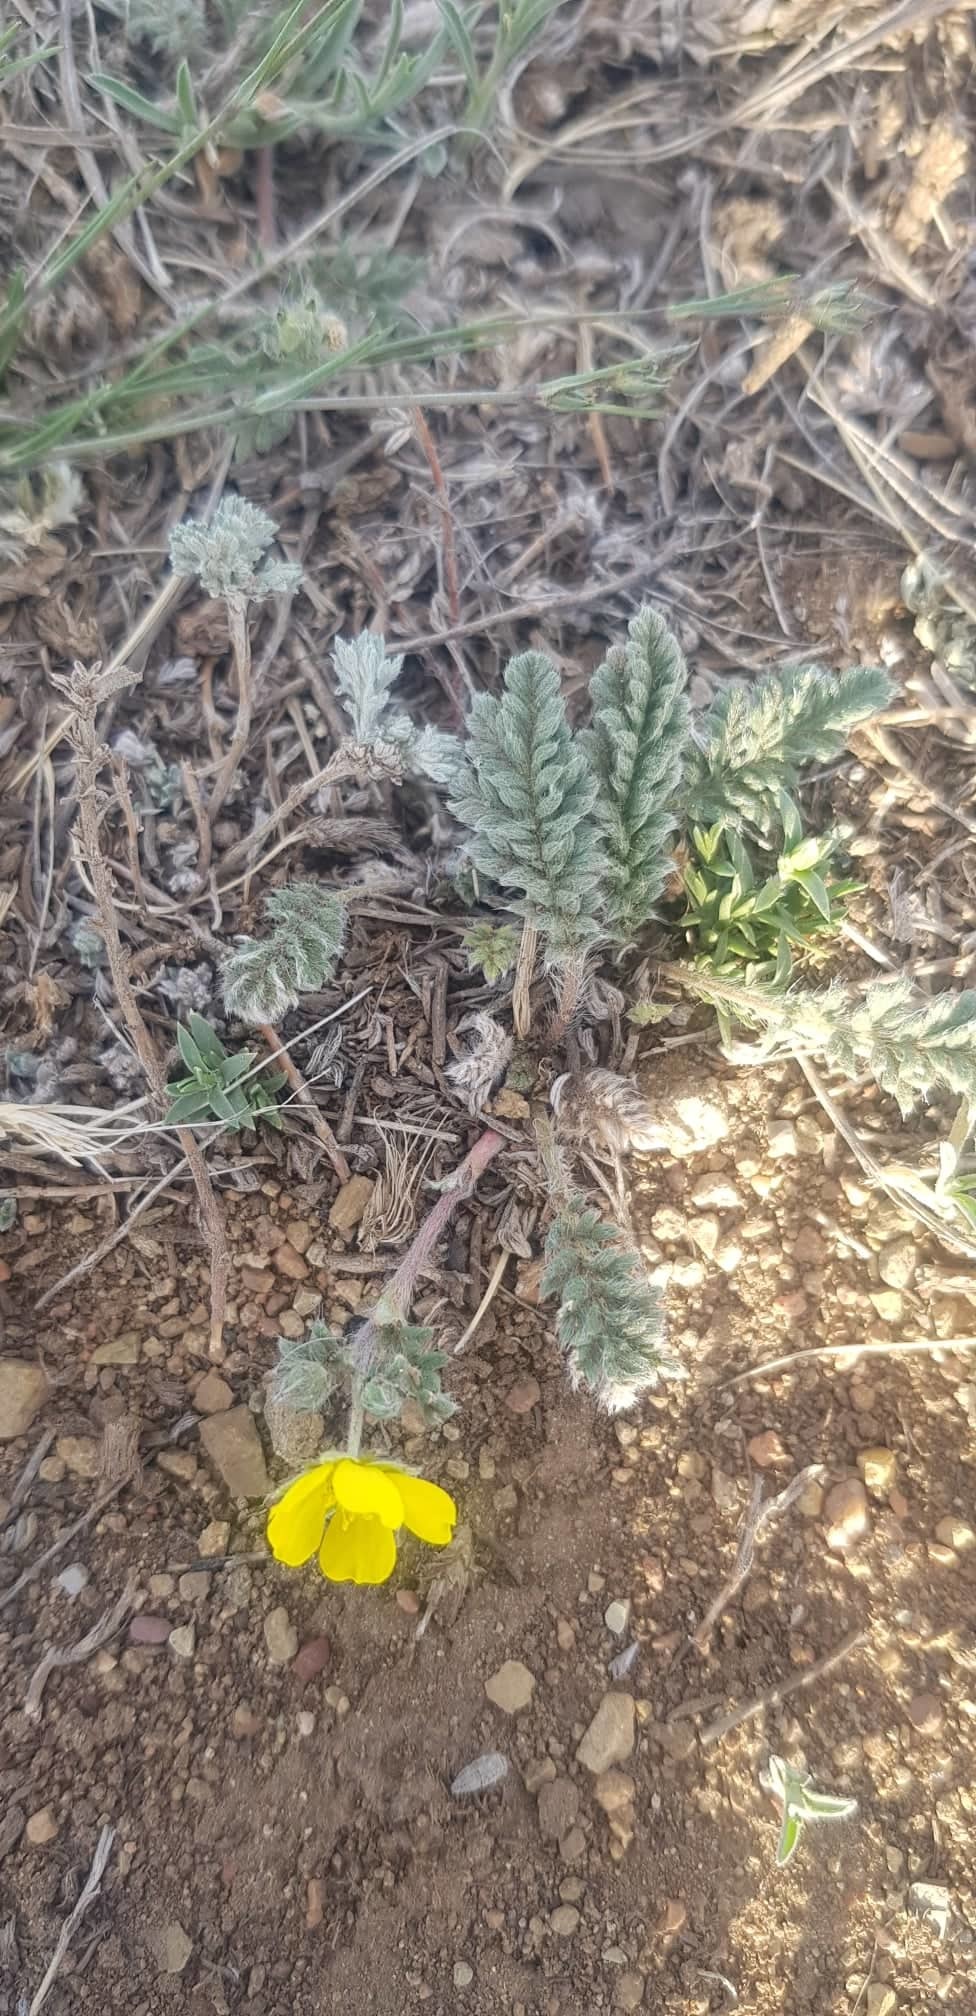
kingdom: Plantae
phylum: Tracheophyta
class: Magnoliopsida
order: Rosales
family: Rosaceae
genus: Potentilla
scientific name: Potentilla sericea
